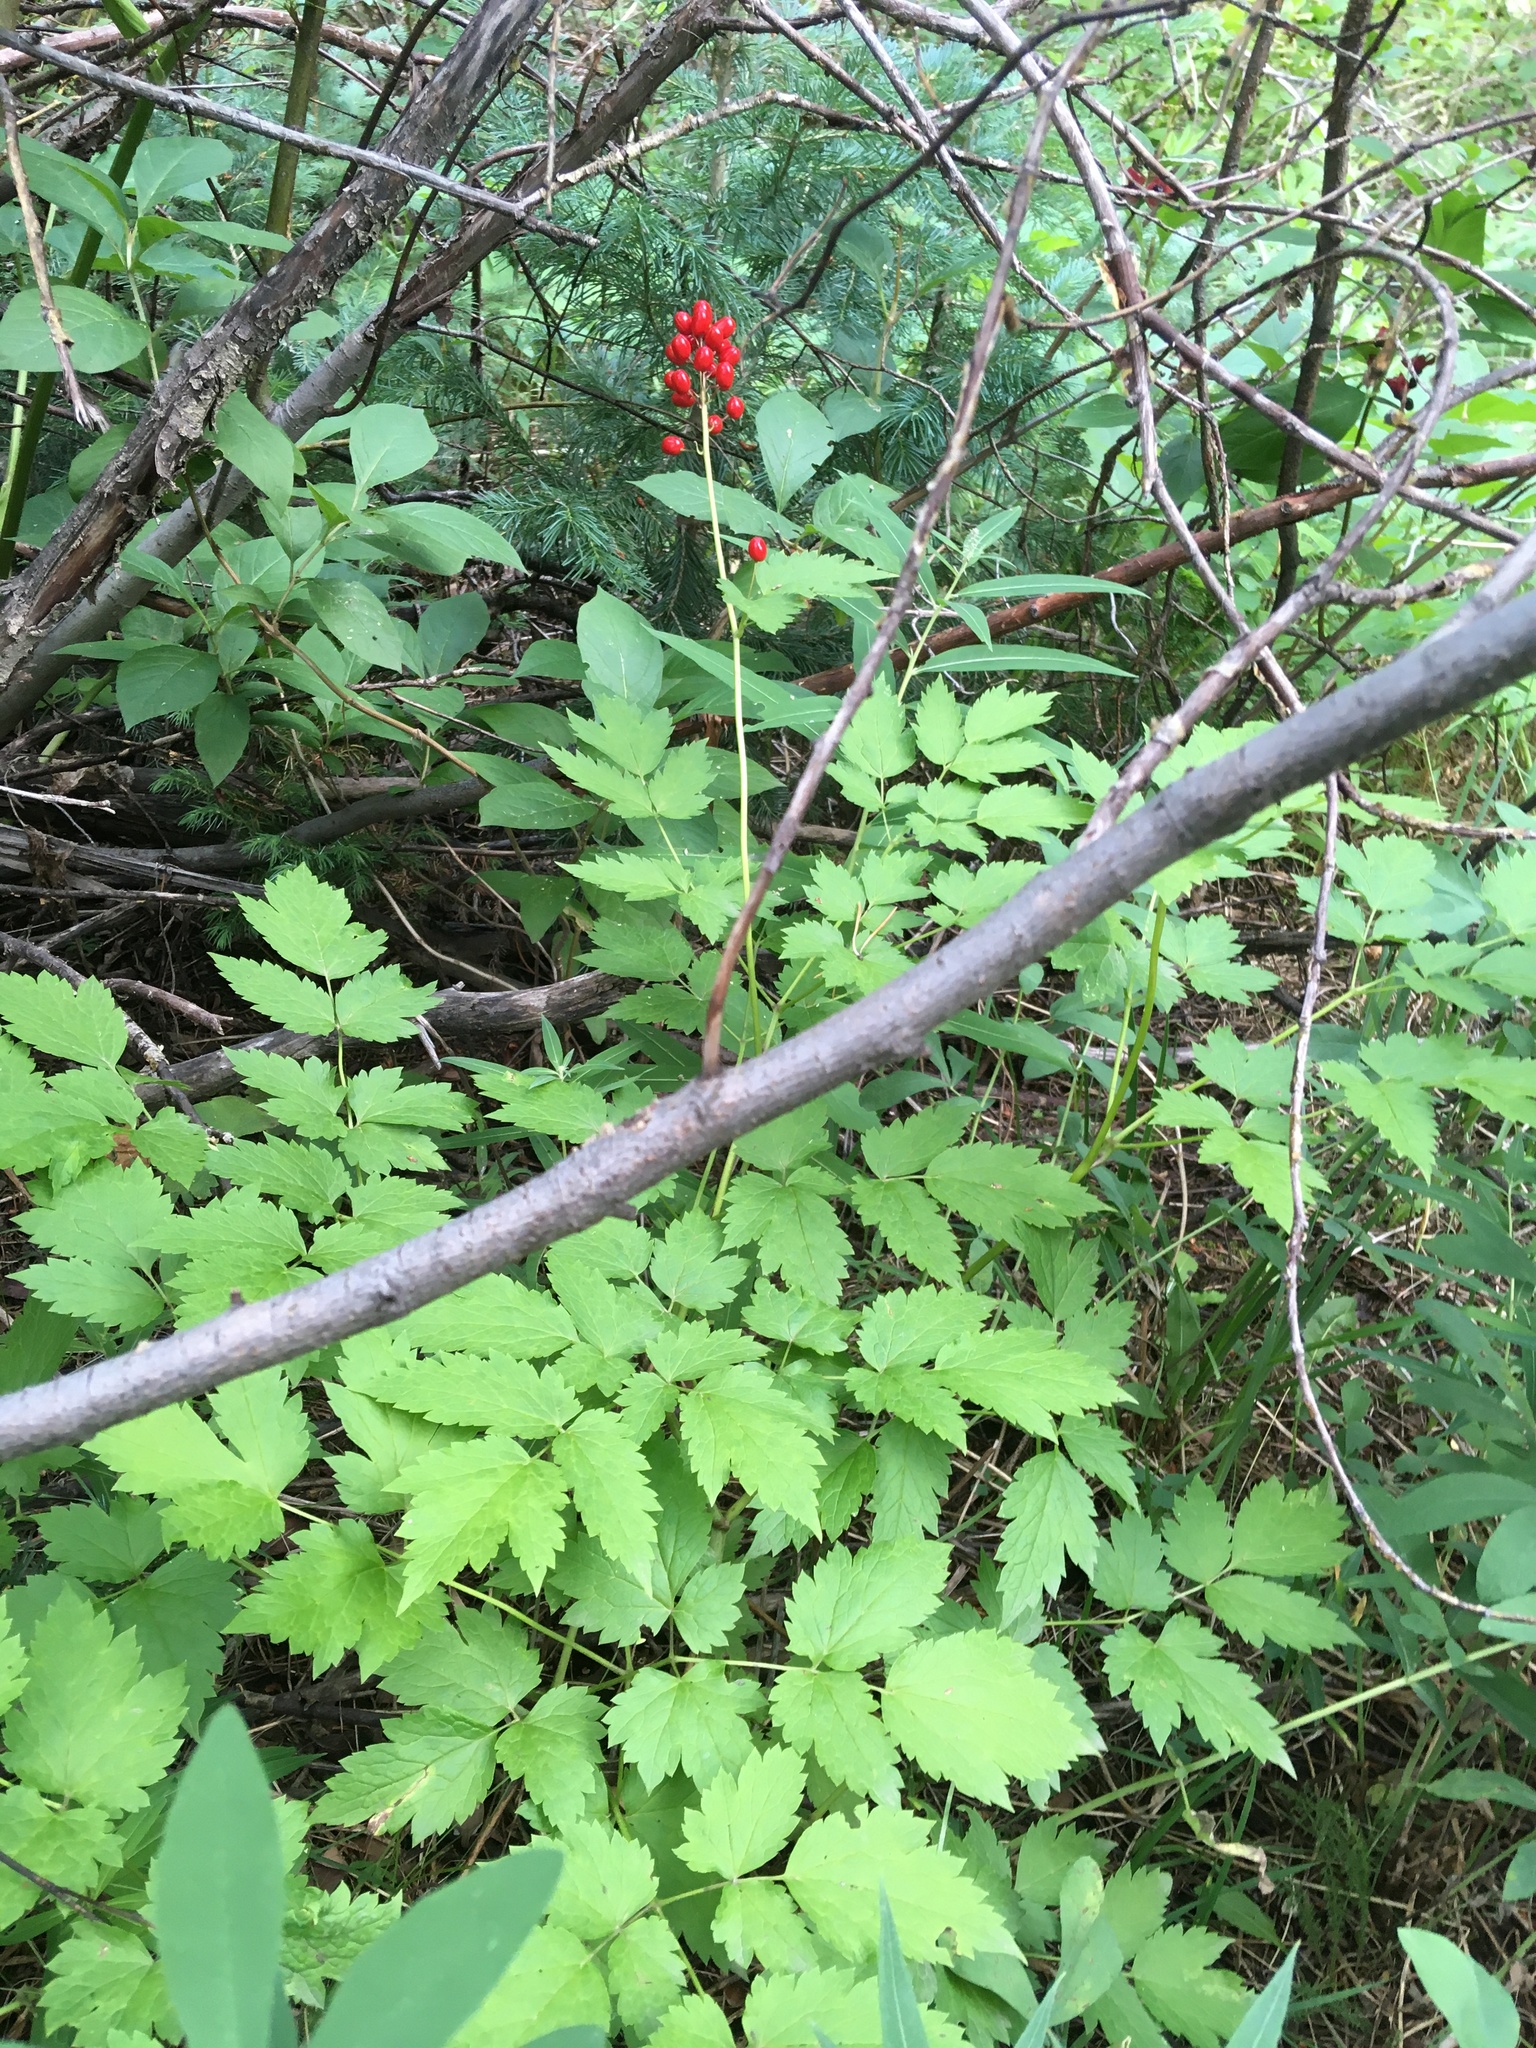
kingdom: Plantae
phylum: Tracheophyta
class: Magnoliopsida
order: Ranunculales
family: Ranunculaceae
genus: Actaea
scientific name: Actaea rubra
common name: Red baneberry
